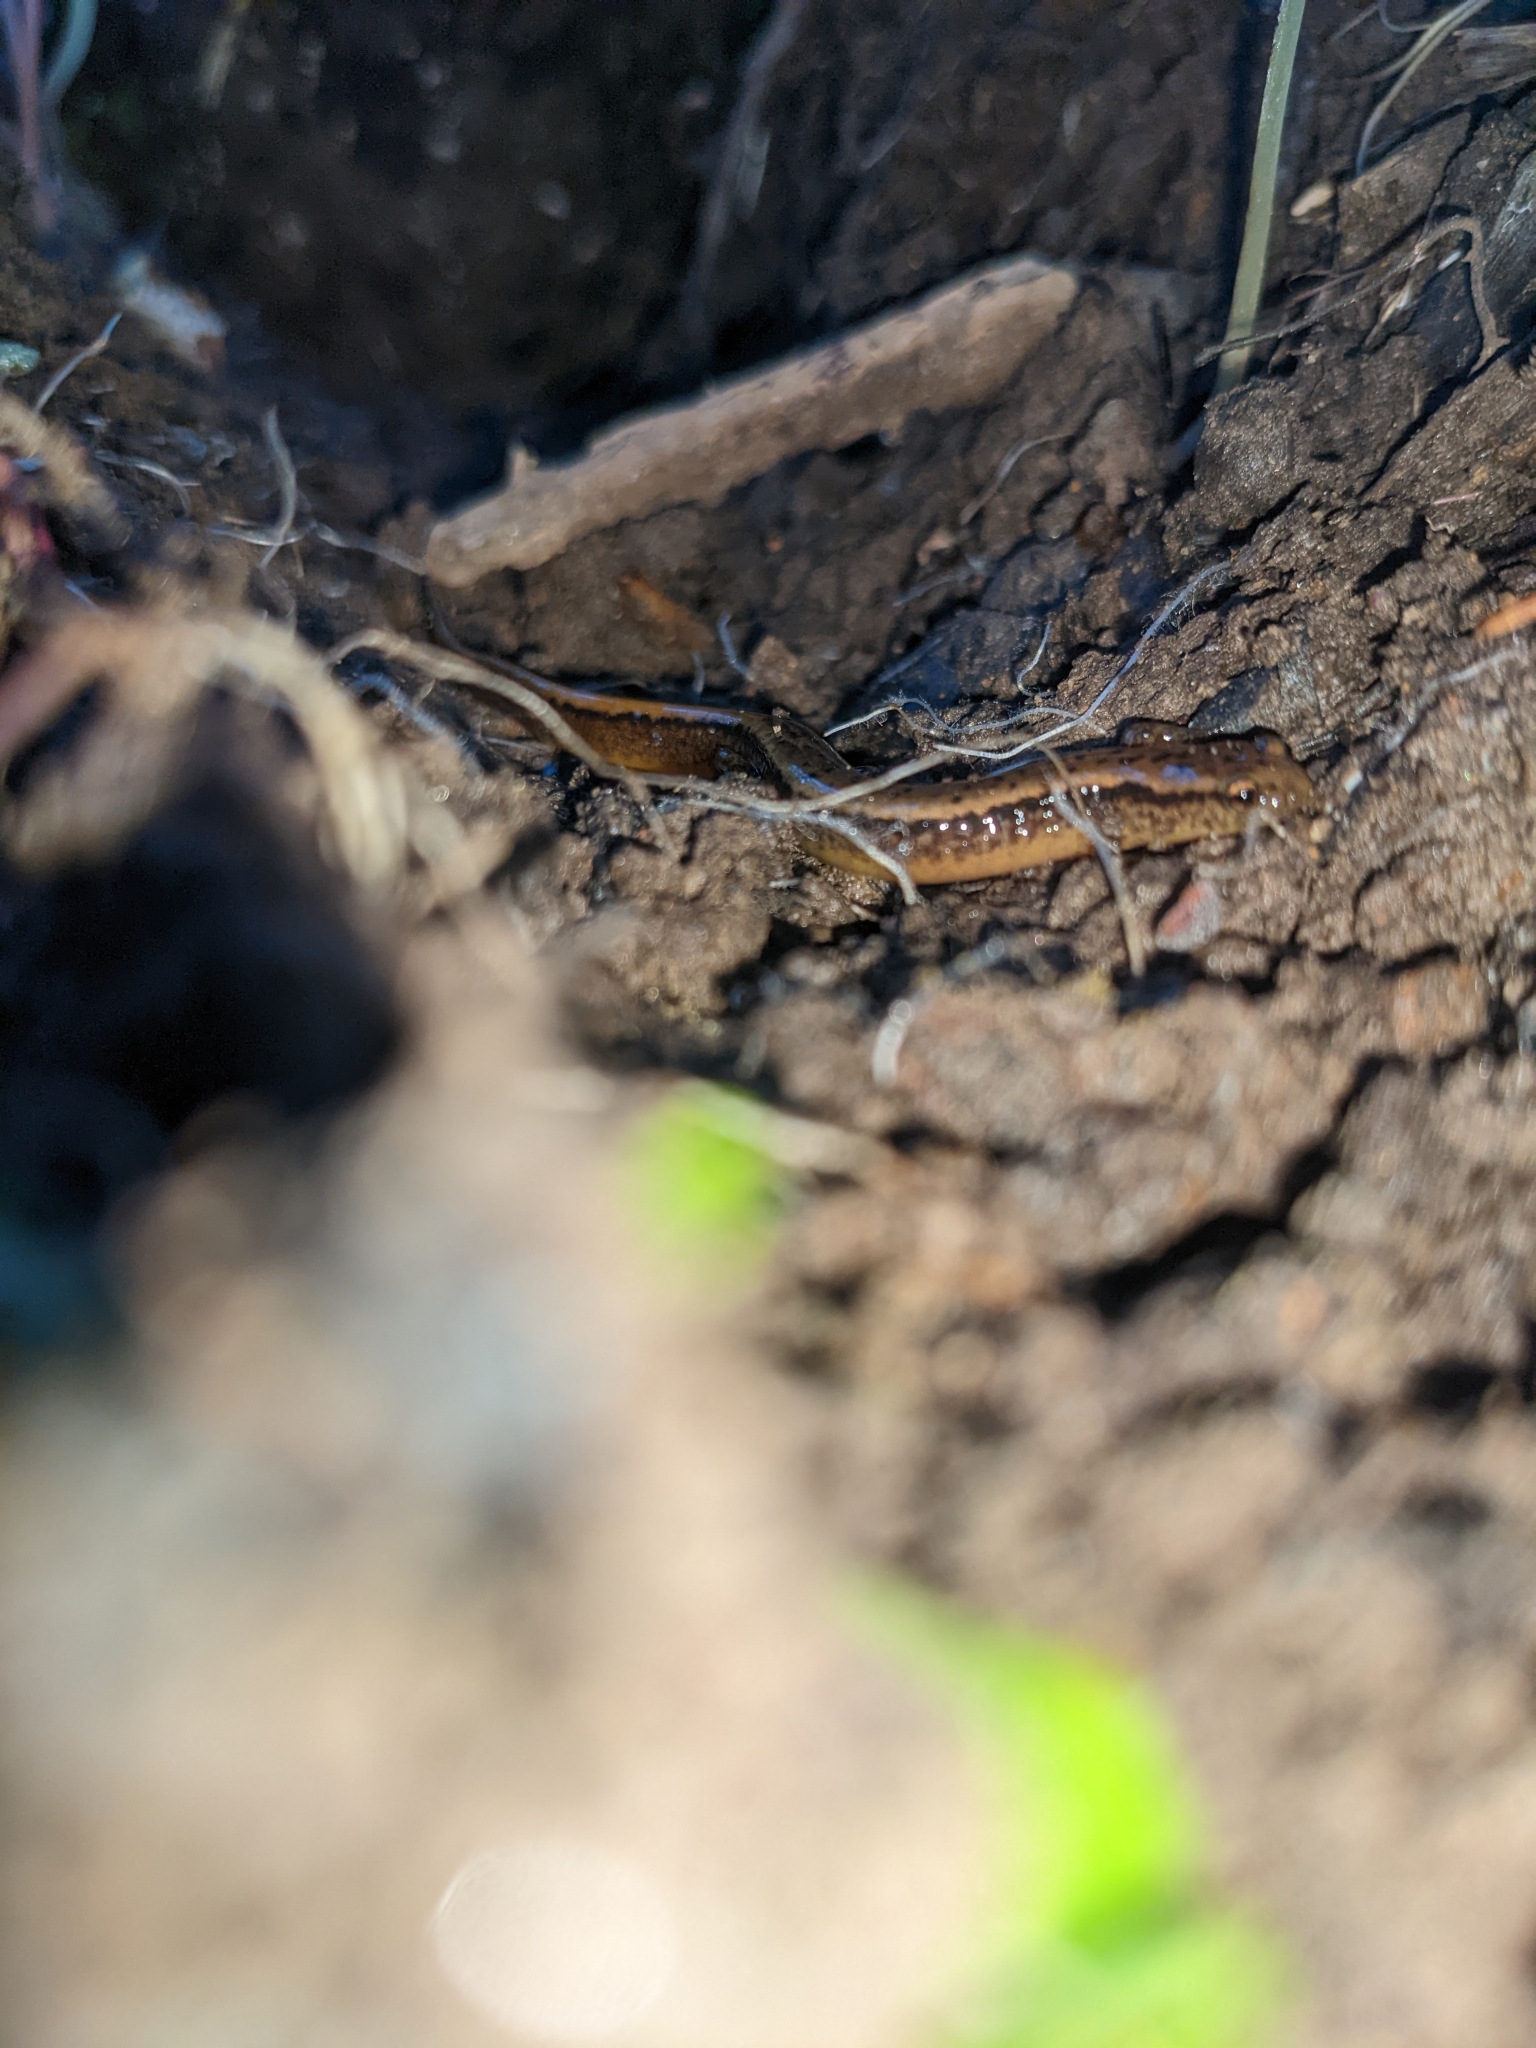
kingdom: Animalia
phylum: Chordata
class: Amphibia
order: Caudata
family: Plethodontidae
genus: Eurycea
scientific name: Eurycea bislineata
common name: Northern two-lined salamander
